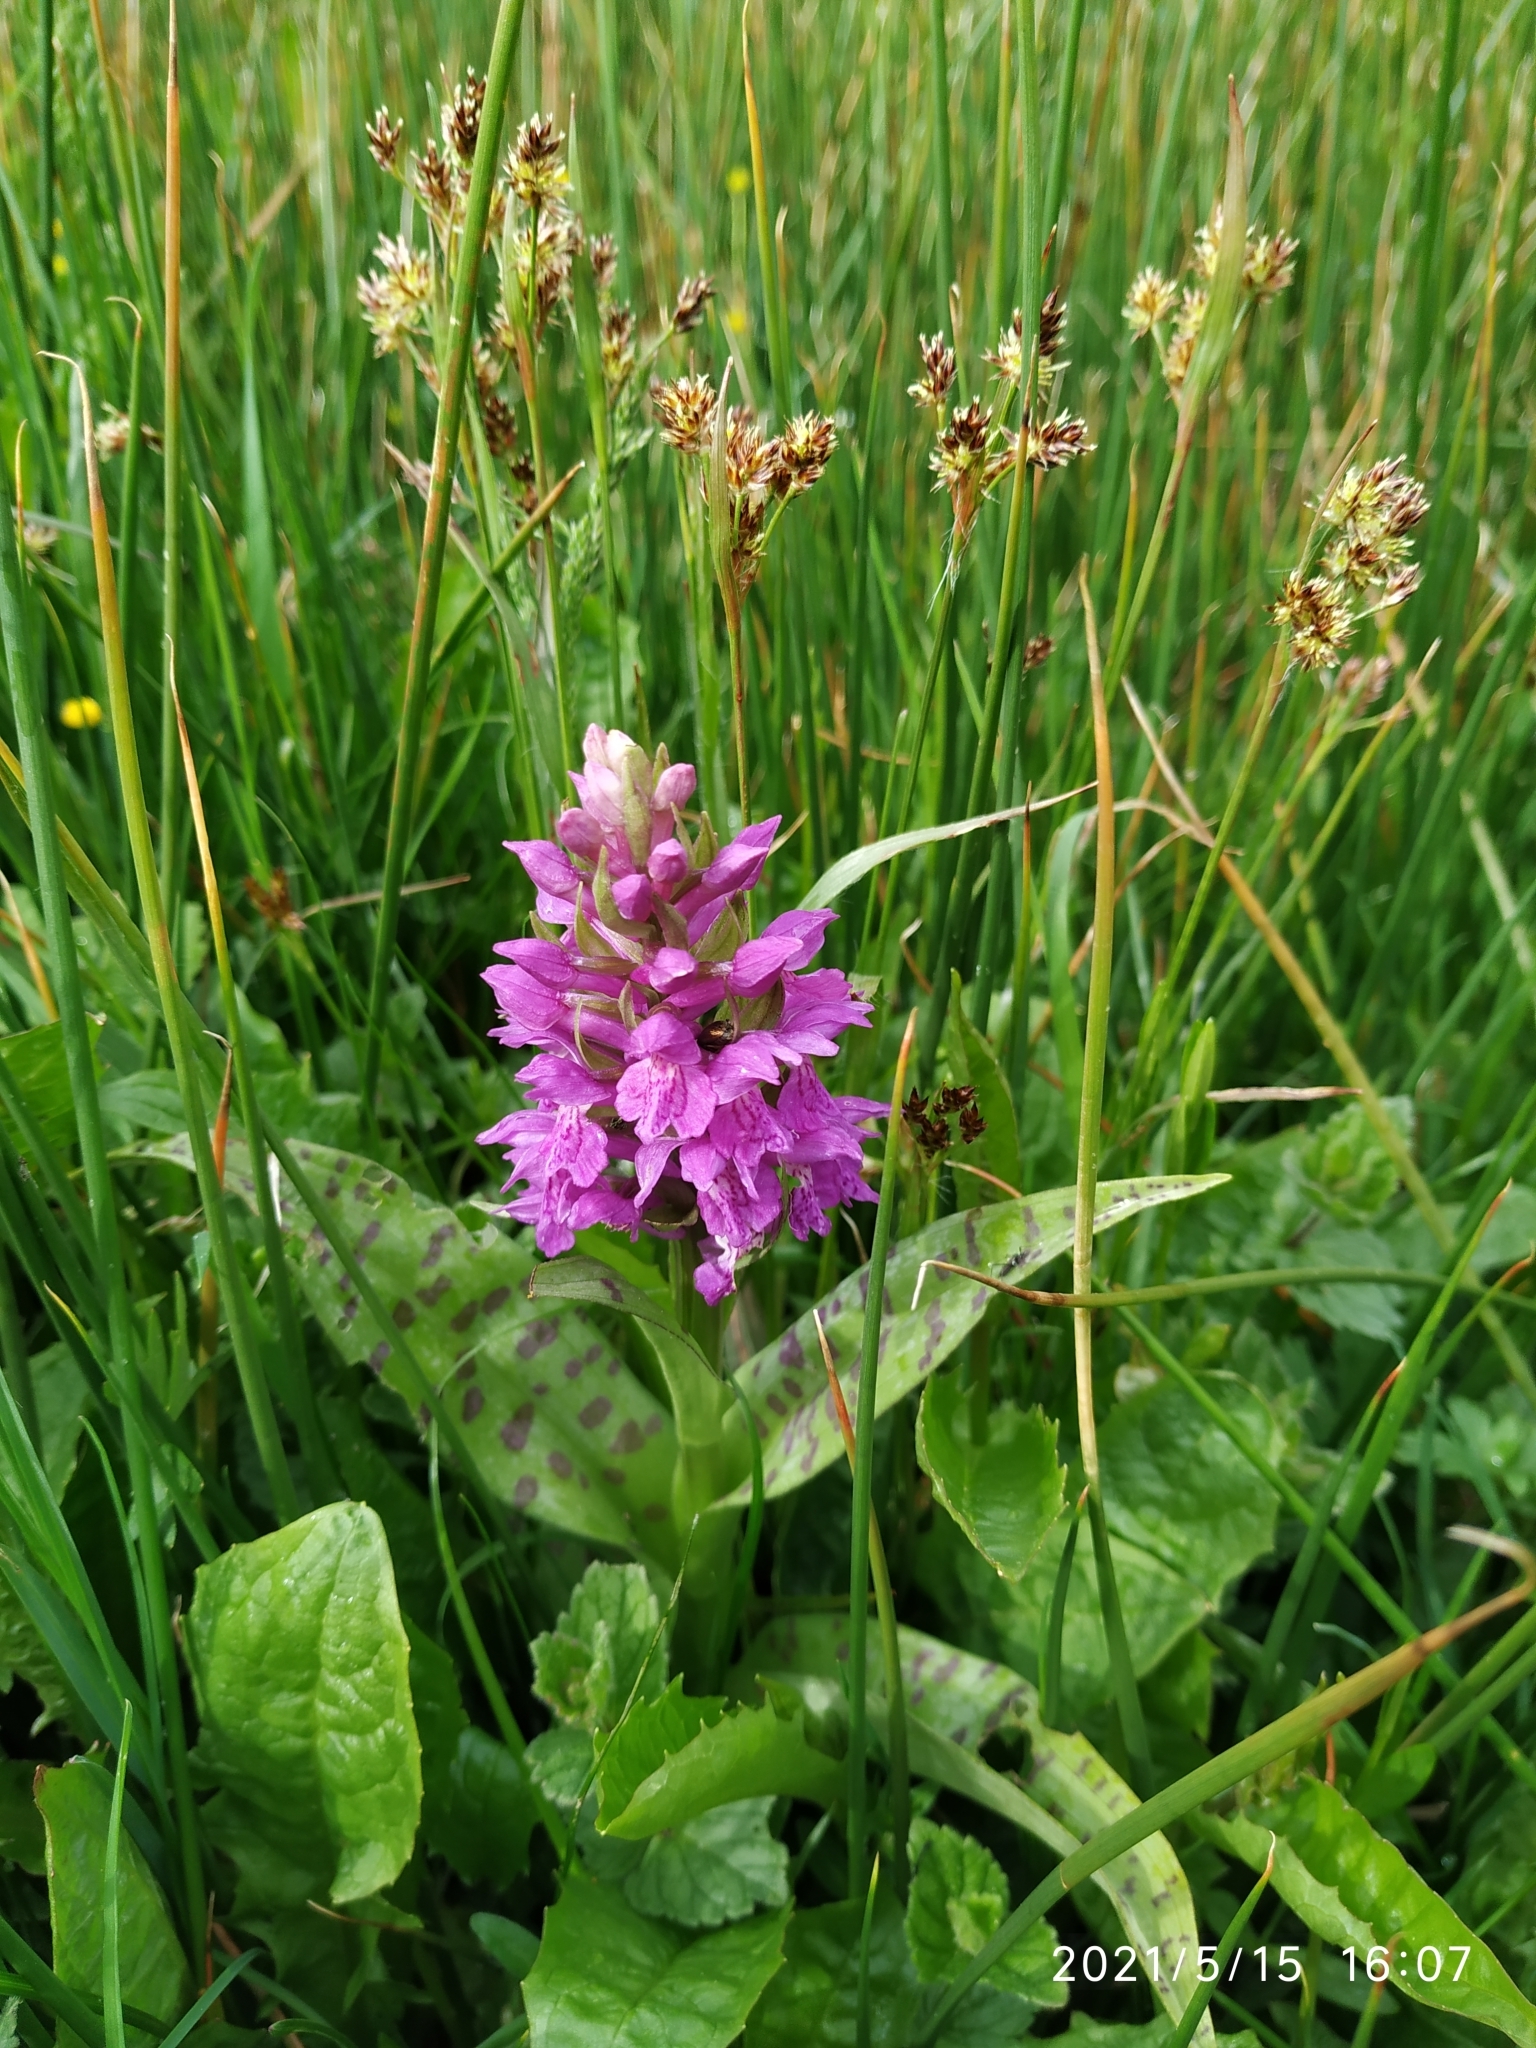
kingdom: Plantae
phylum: Tracheophyta
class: Liliopsida
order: Asparagales
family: Orchidaceae
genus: Dactylorhiza
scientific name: Dactylorhiza majalis
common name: Marsh orchid
